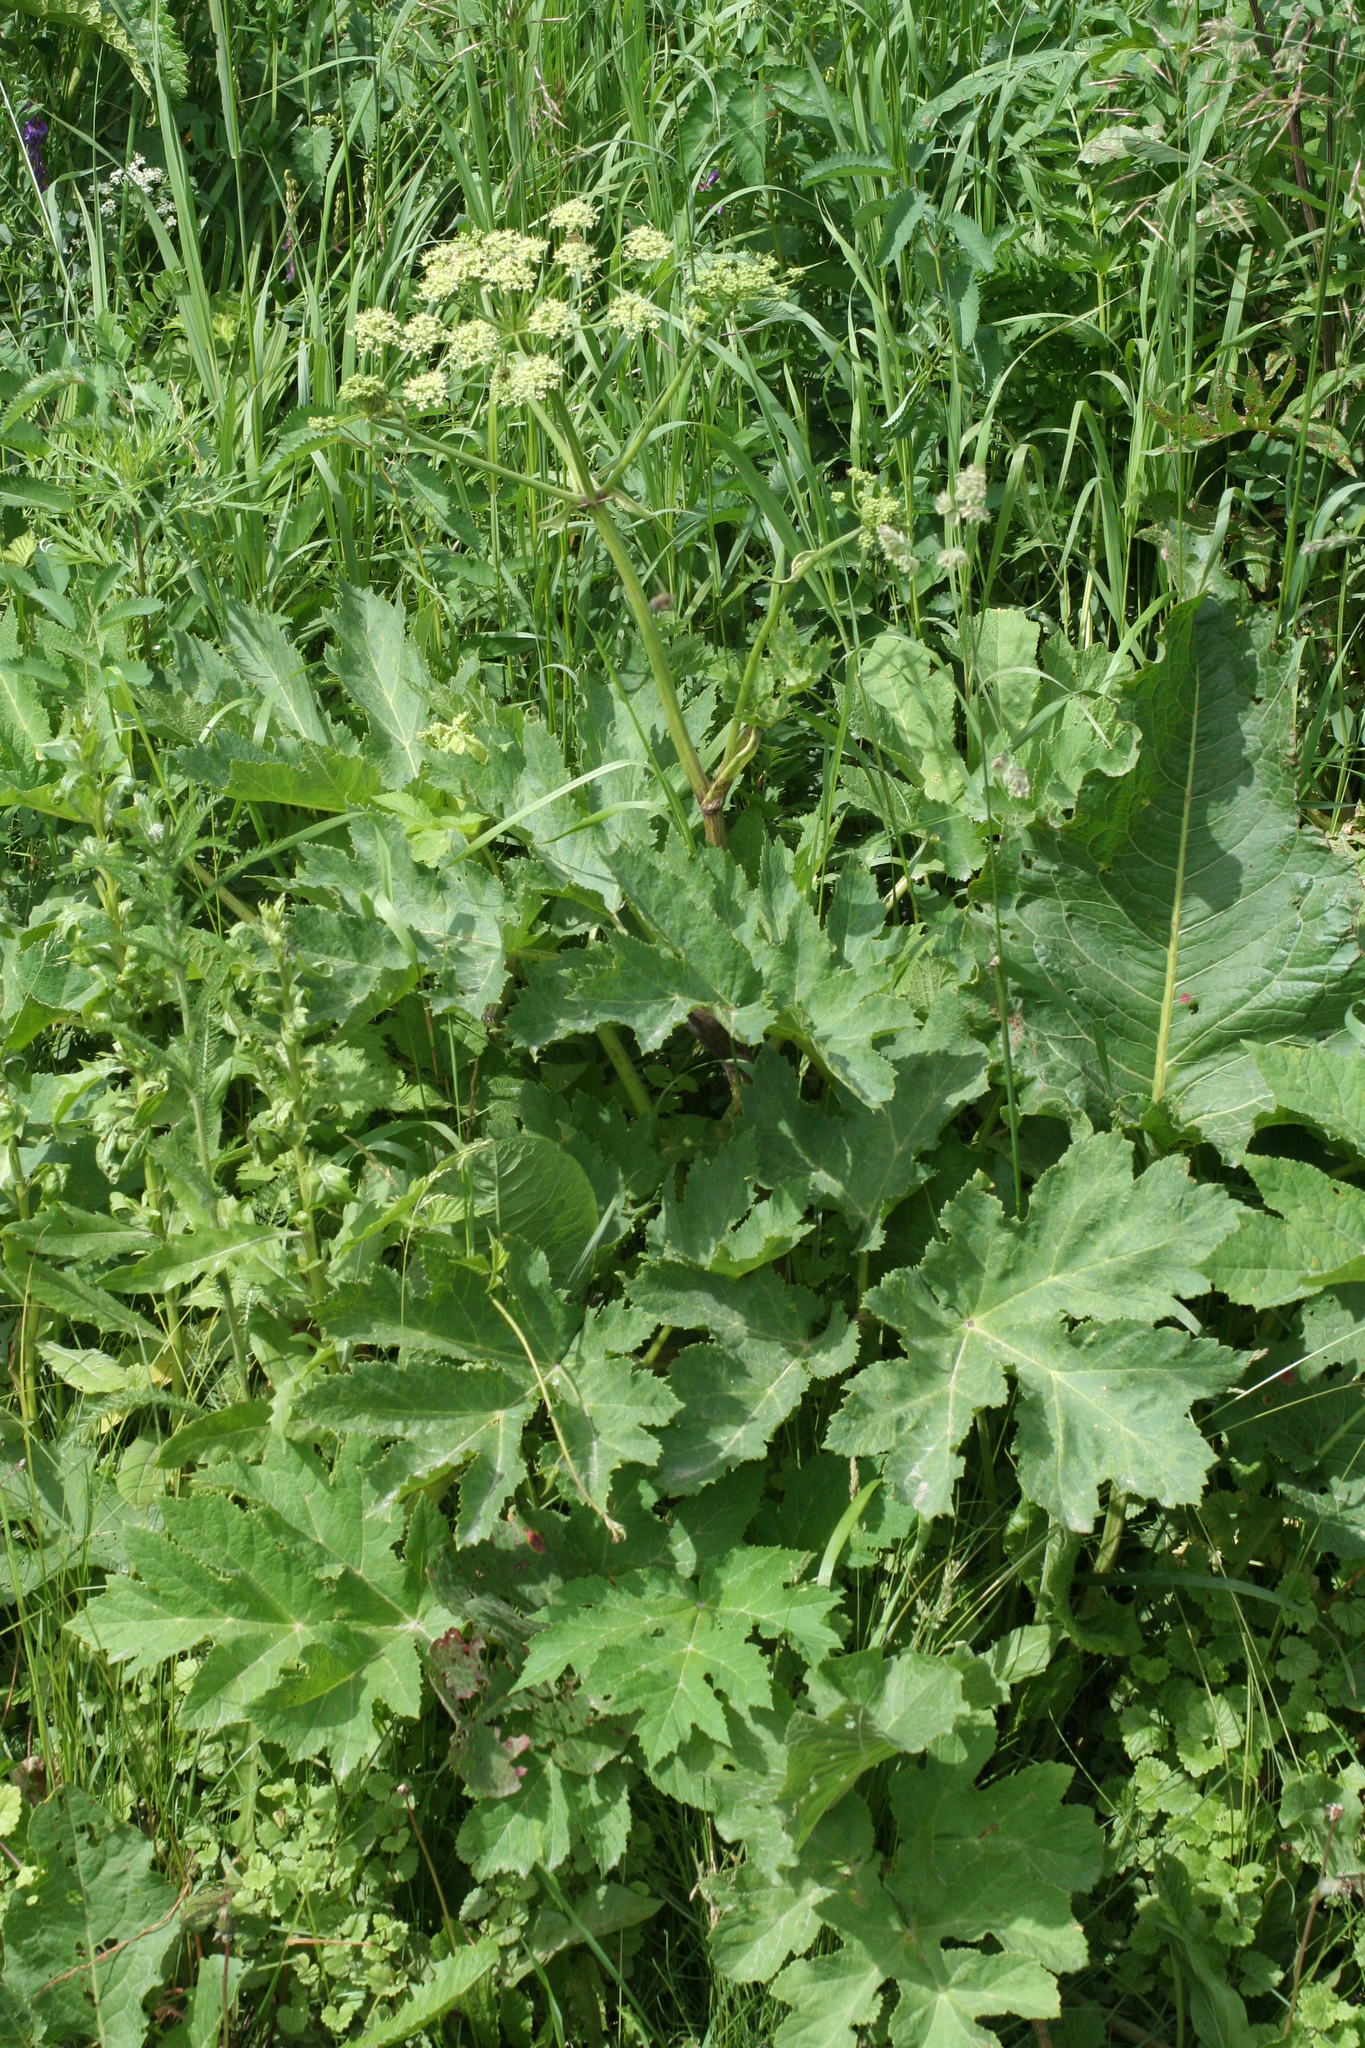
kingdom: Plantae
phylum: Tracheophyta
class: Magnoliopsida
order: Apiales
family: Apiaceae
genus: Heracleum
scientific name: Heracleum sphondylium
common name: Hogweed
